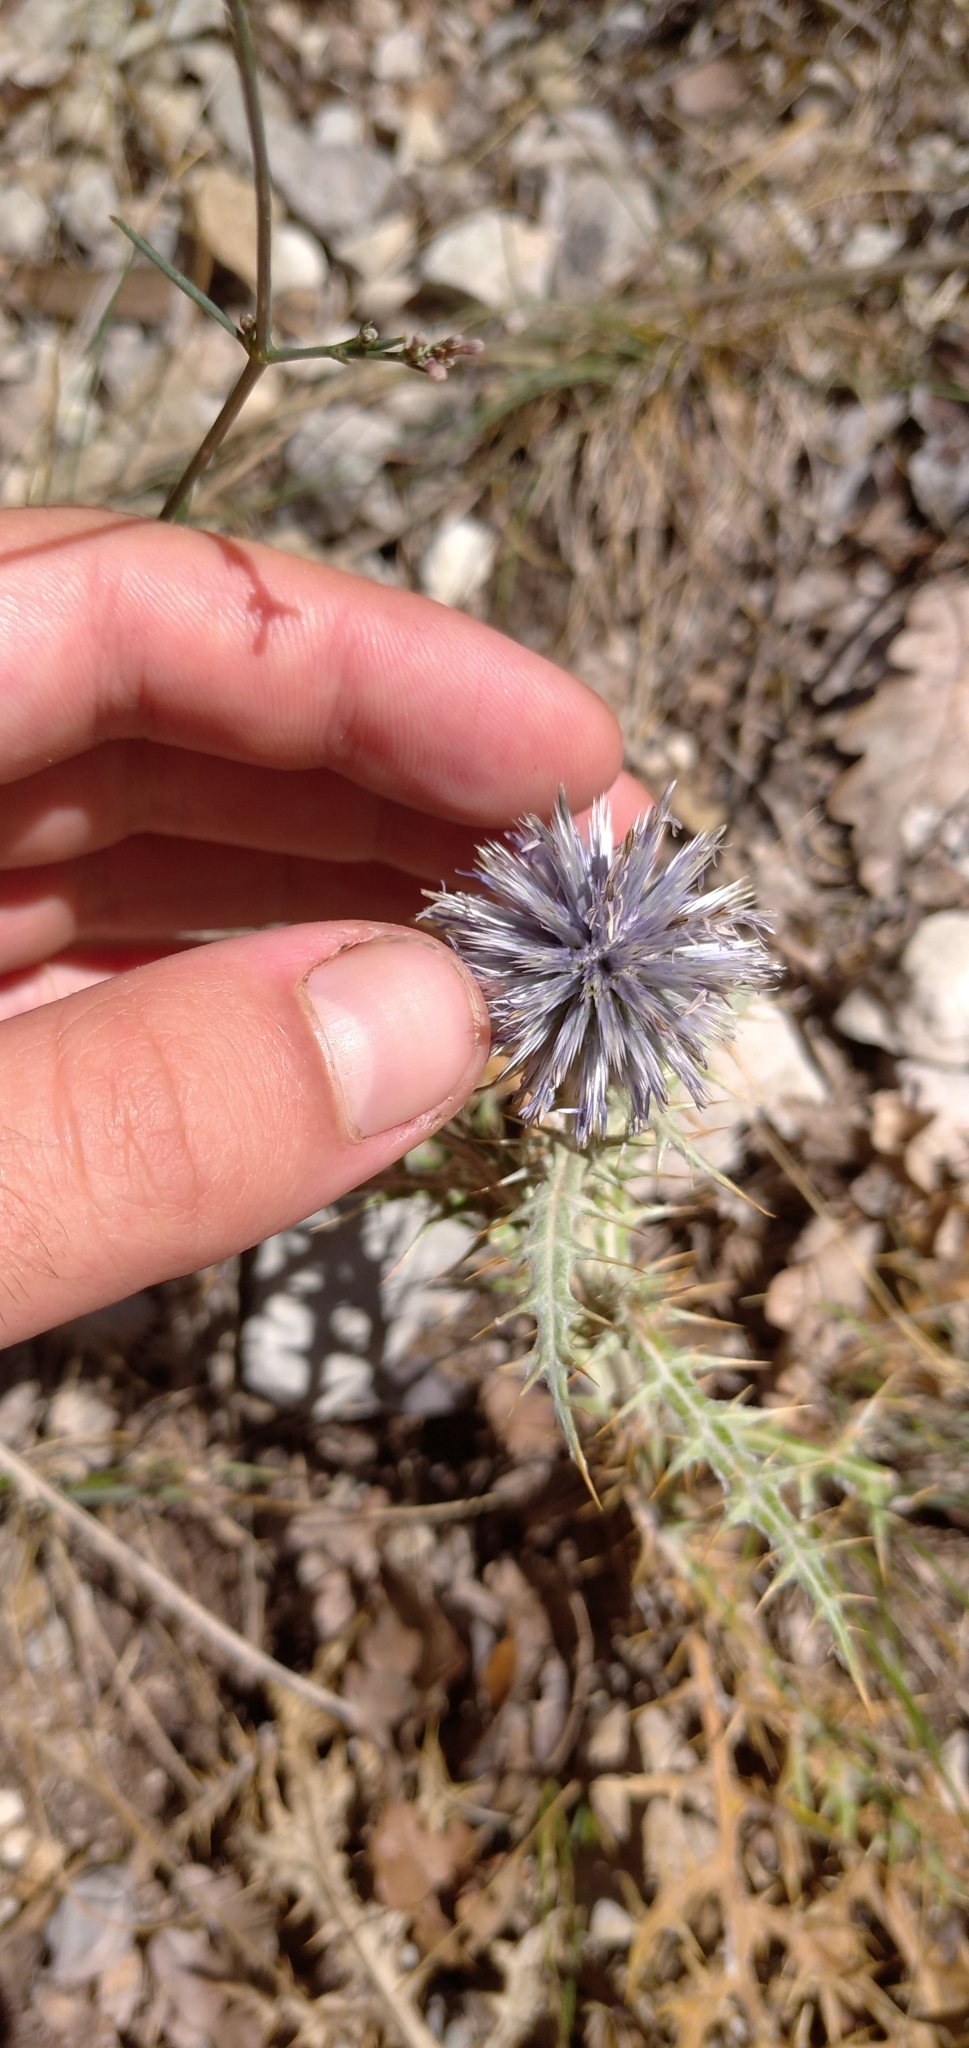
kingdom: Plantae
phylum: Tracheophyta
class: Magnoliopsida
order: Asterales
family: Asteraceae
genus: Echinops
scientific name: Echinops ritro
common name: Globe thistle
